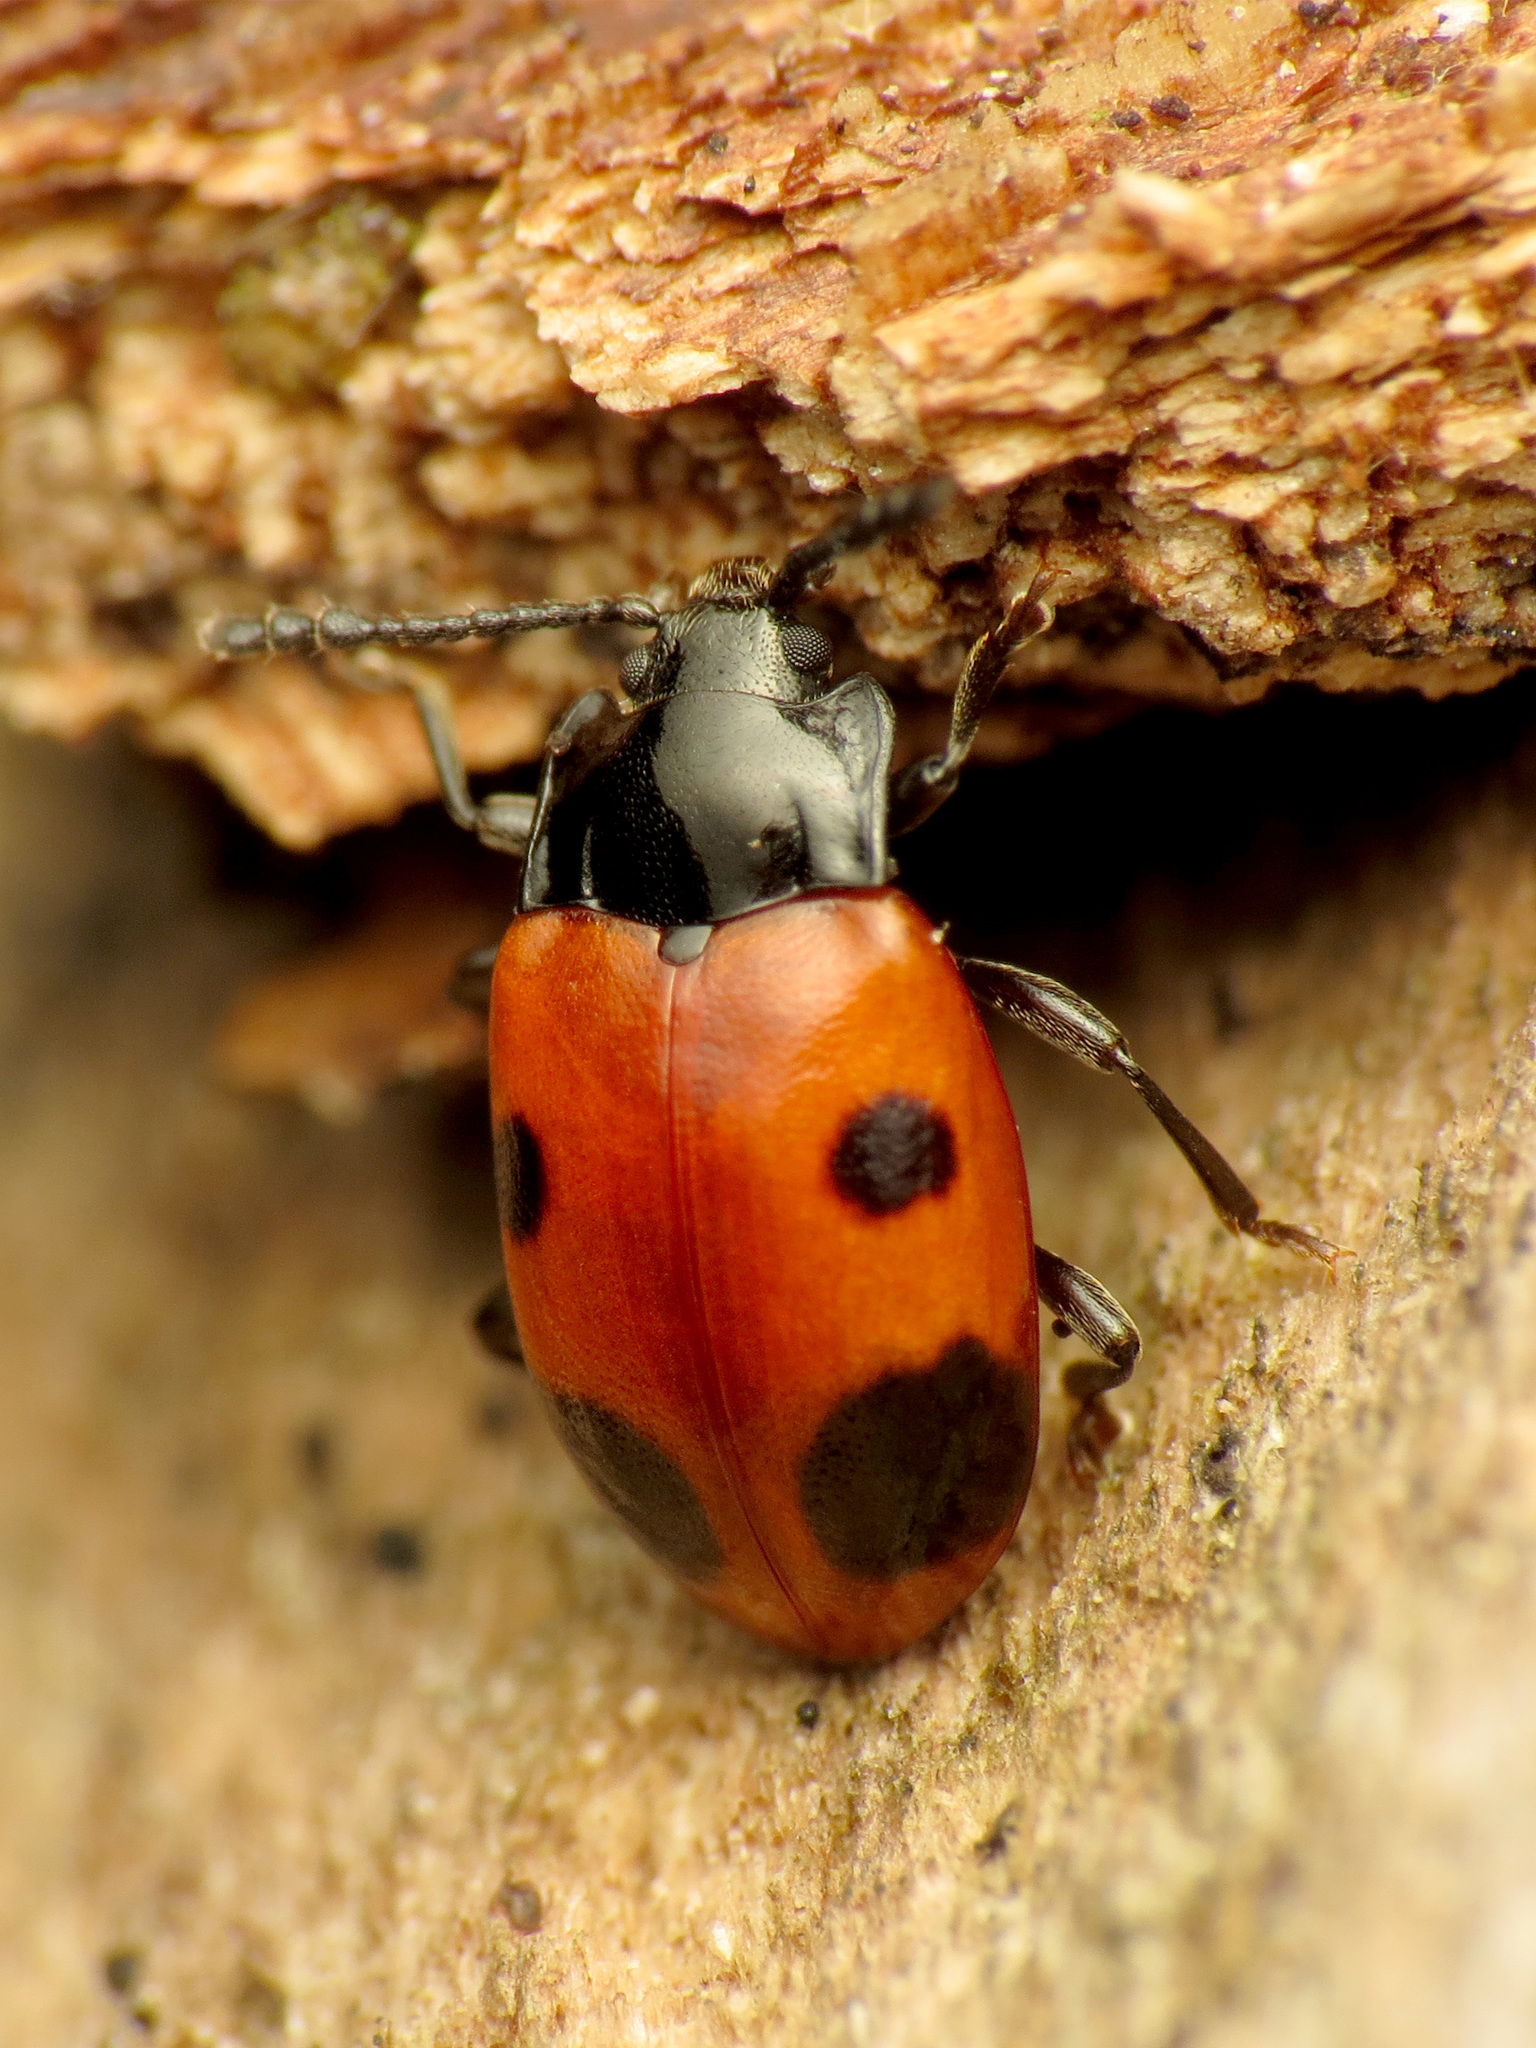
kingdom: Animalia
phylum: Arthropoda
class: Insecta
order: Coleoptera
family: Endomychidae
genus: Endomychus
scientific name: Endomychus biguttatus
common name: Handsome fungus beetle
